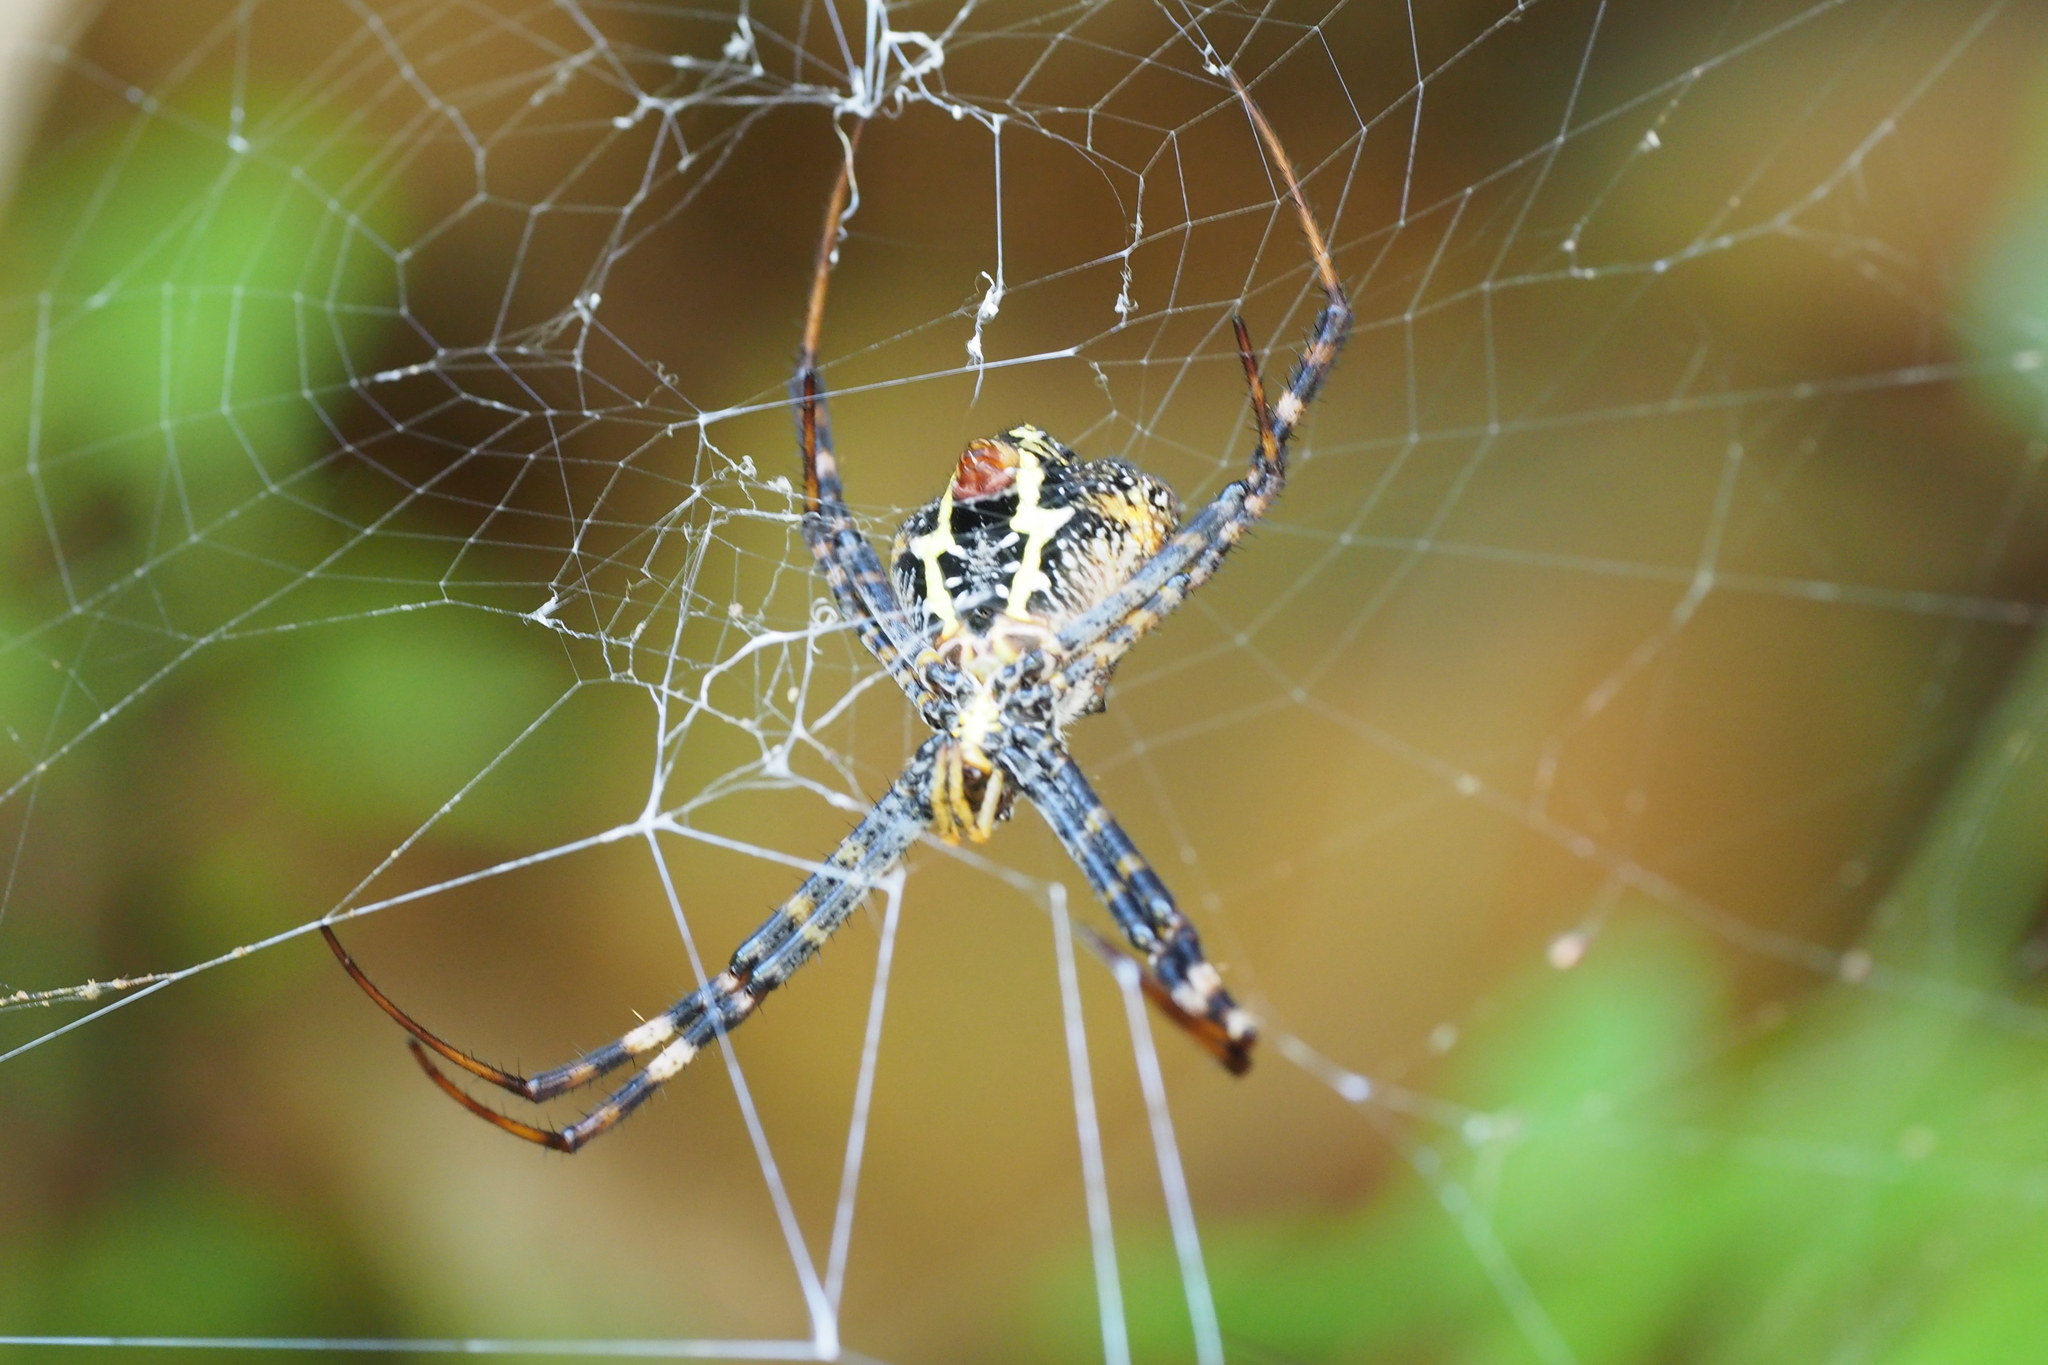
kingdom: Animalia
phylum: Arthropoda
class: Arachnida
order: Araneae
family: Araneidae
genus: Argiope
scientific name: Argiope aetheroides
